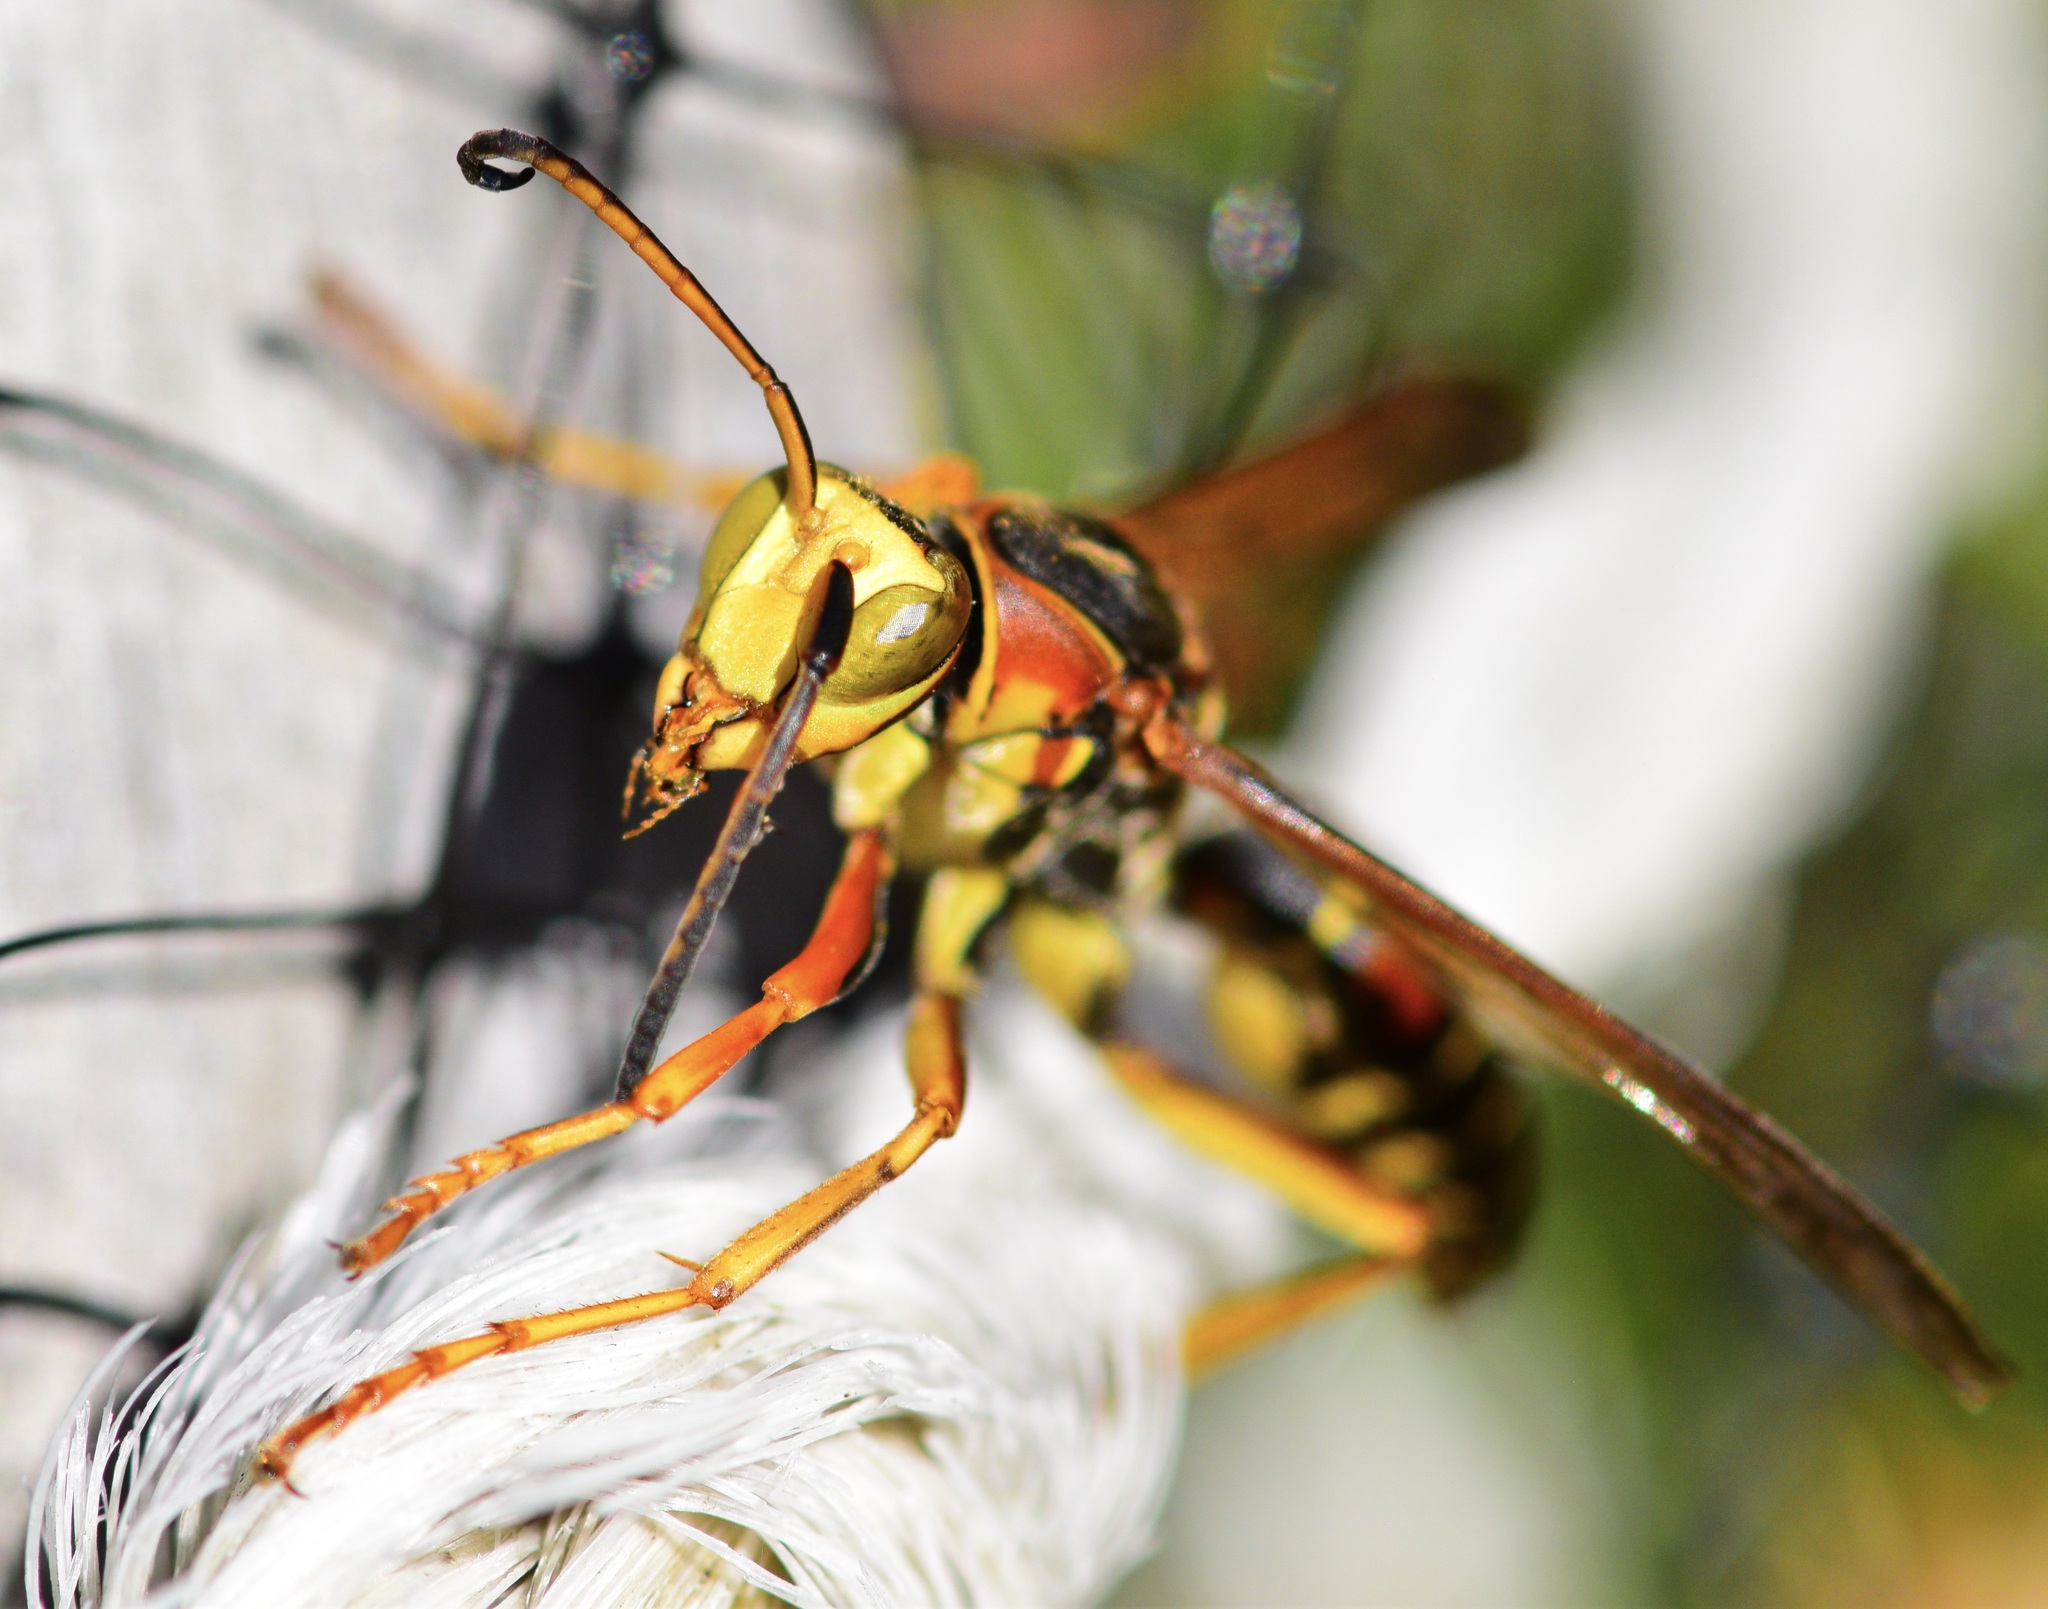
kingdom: Animalia
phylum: Arthropoda
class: Insecta
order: Hymenoptera
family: Eumenidae
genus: Polistes
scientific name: Polistes fuscatus
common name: Dark paper wasp
